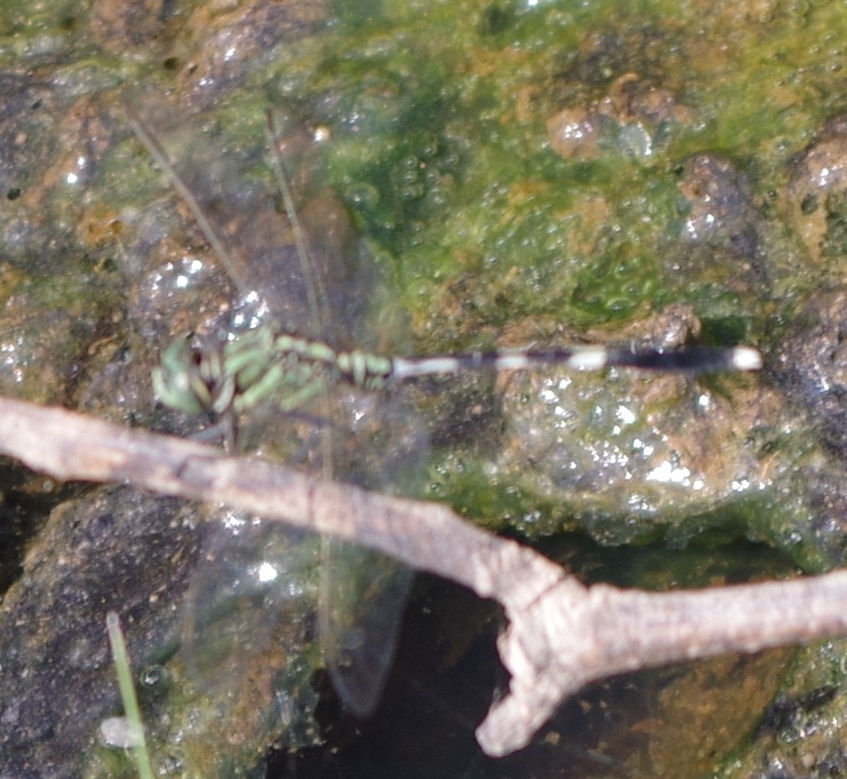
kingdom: Animalia
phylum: Arthropoda
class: Insecta
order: Odonata
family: Libellulidae
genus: Orthetrum
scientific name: Orthetrum sabina
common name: Slender skimmer
